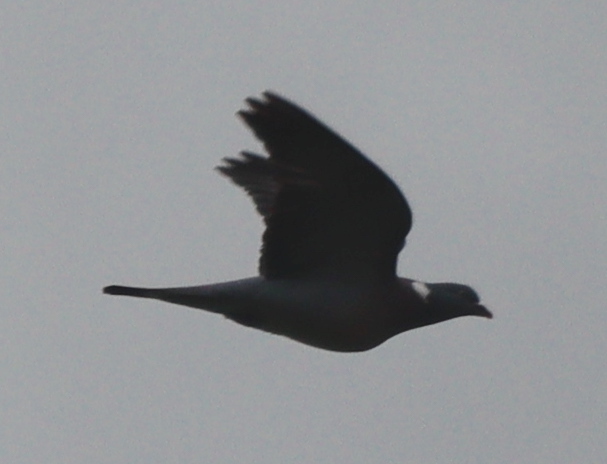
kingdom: Animalia
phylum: Chordata
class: Aves
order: Columbiformes
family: Columbidae
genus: Columba
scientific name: Columba palumbus
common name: Common wood pigeon
